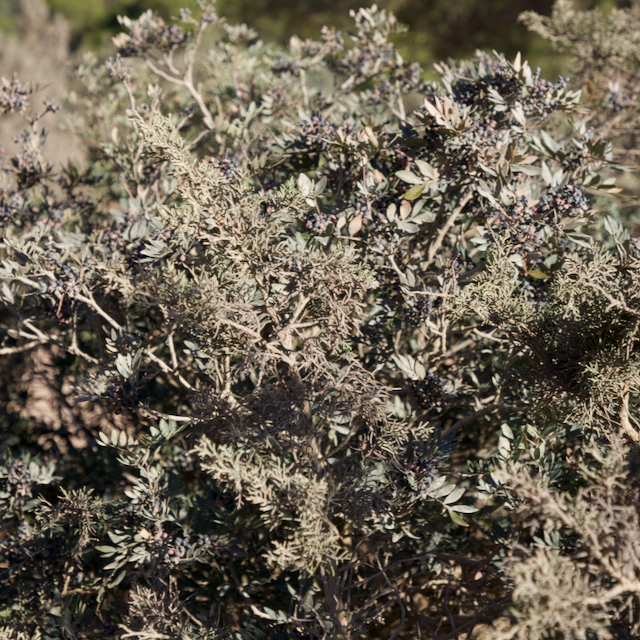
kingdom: Plantae
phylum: Tracheophyta
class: Magnoliopsida
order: Sapindales
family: Anacardiaceae
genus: Pistacia
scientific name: Pistacia lentiscus
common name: Lentisk
